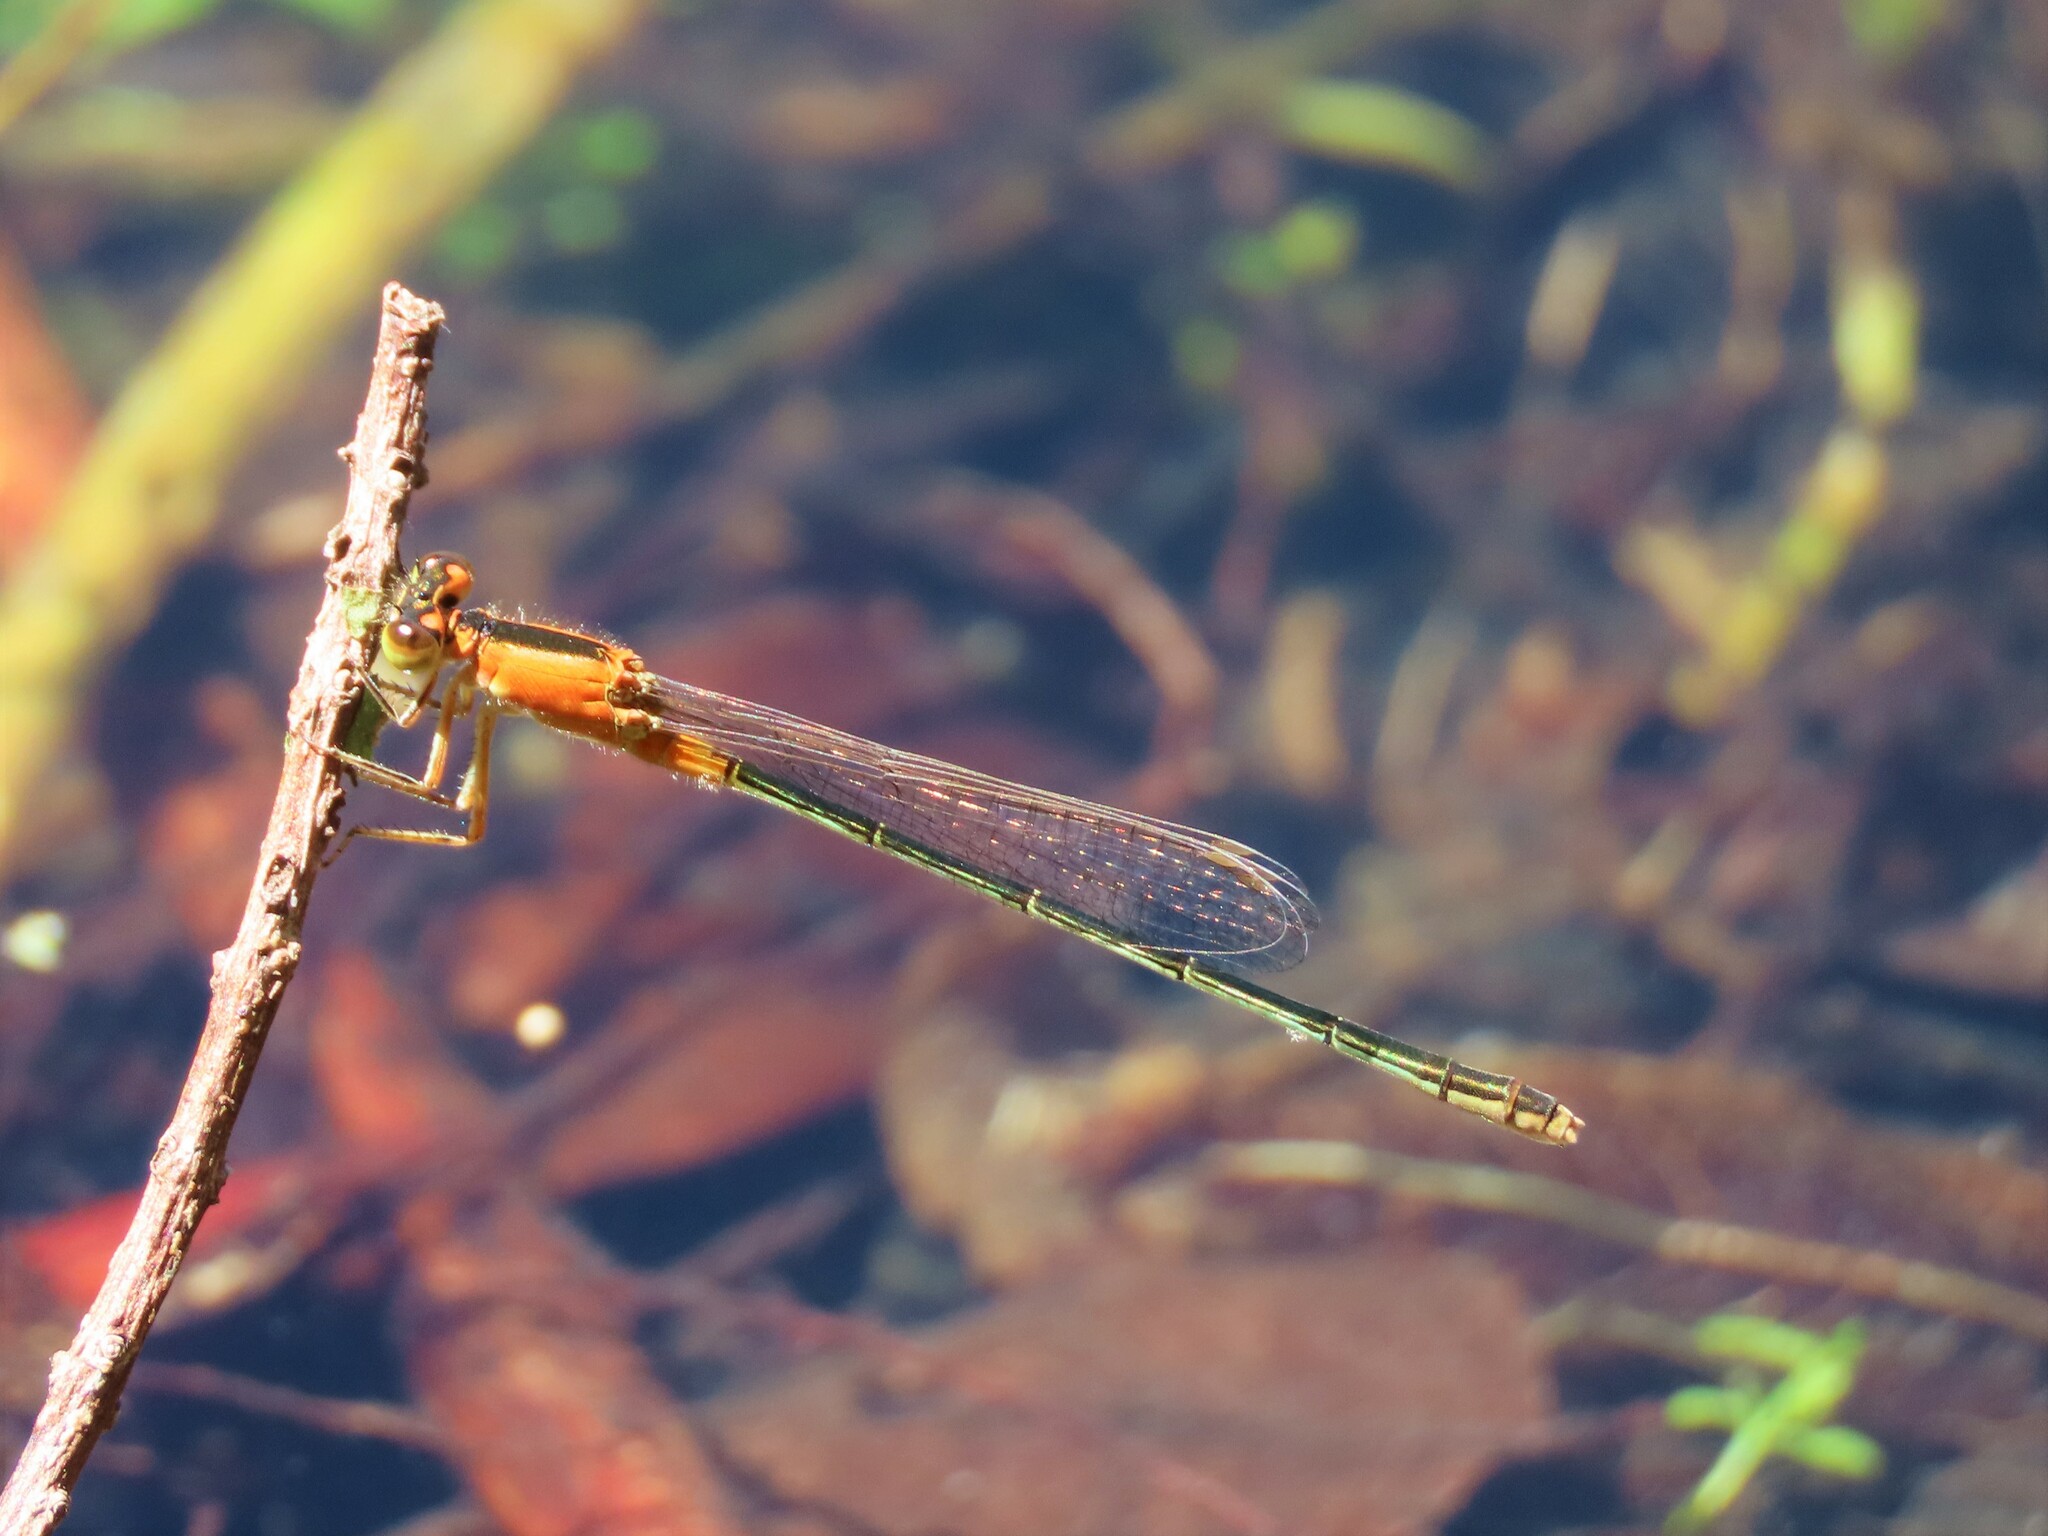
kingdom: Animalia
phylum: Arthropoda
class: Insecta
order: Odonata
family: Coenagrionidae
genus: Ischnura
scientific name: Ischnura ramburii
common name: Rambur's forktail
